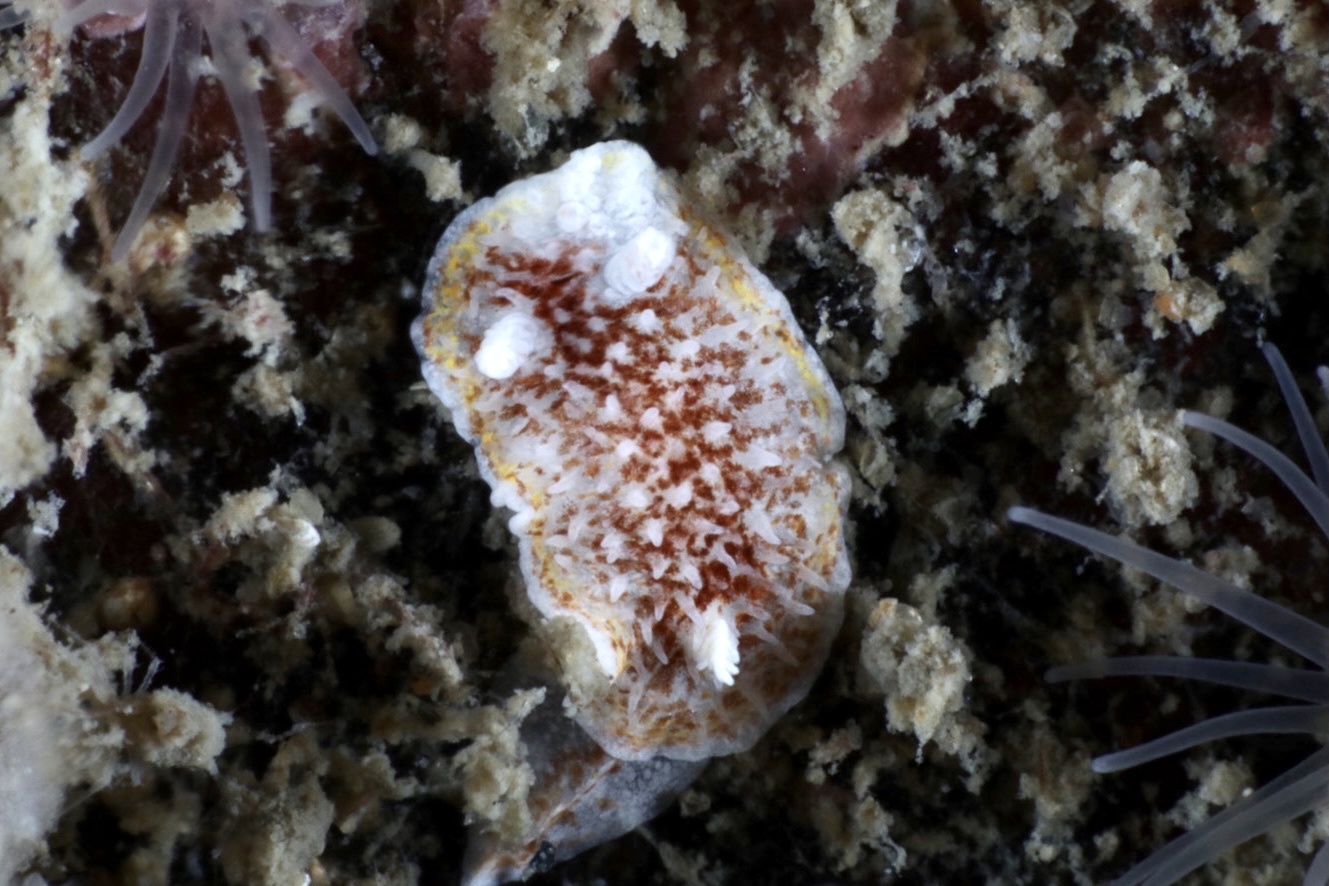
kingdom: Animalia
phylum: Mollusca
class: Gastropoda
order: Nudibranchia
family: Calycidorididae
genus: Diaphorodoris
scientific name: Diaphorodoris luteocincta
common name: Fried egg nudibranch
